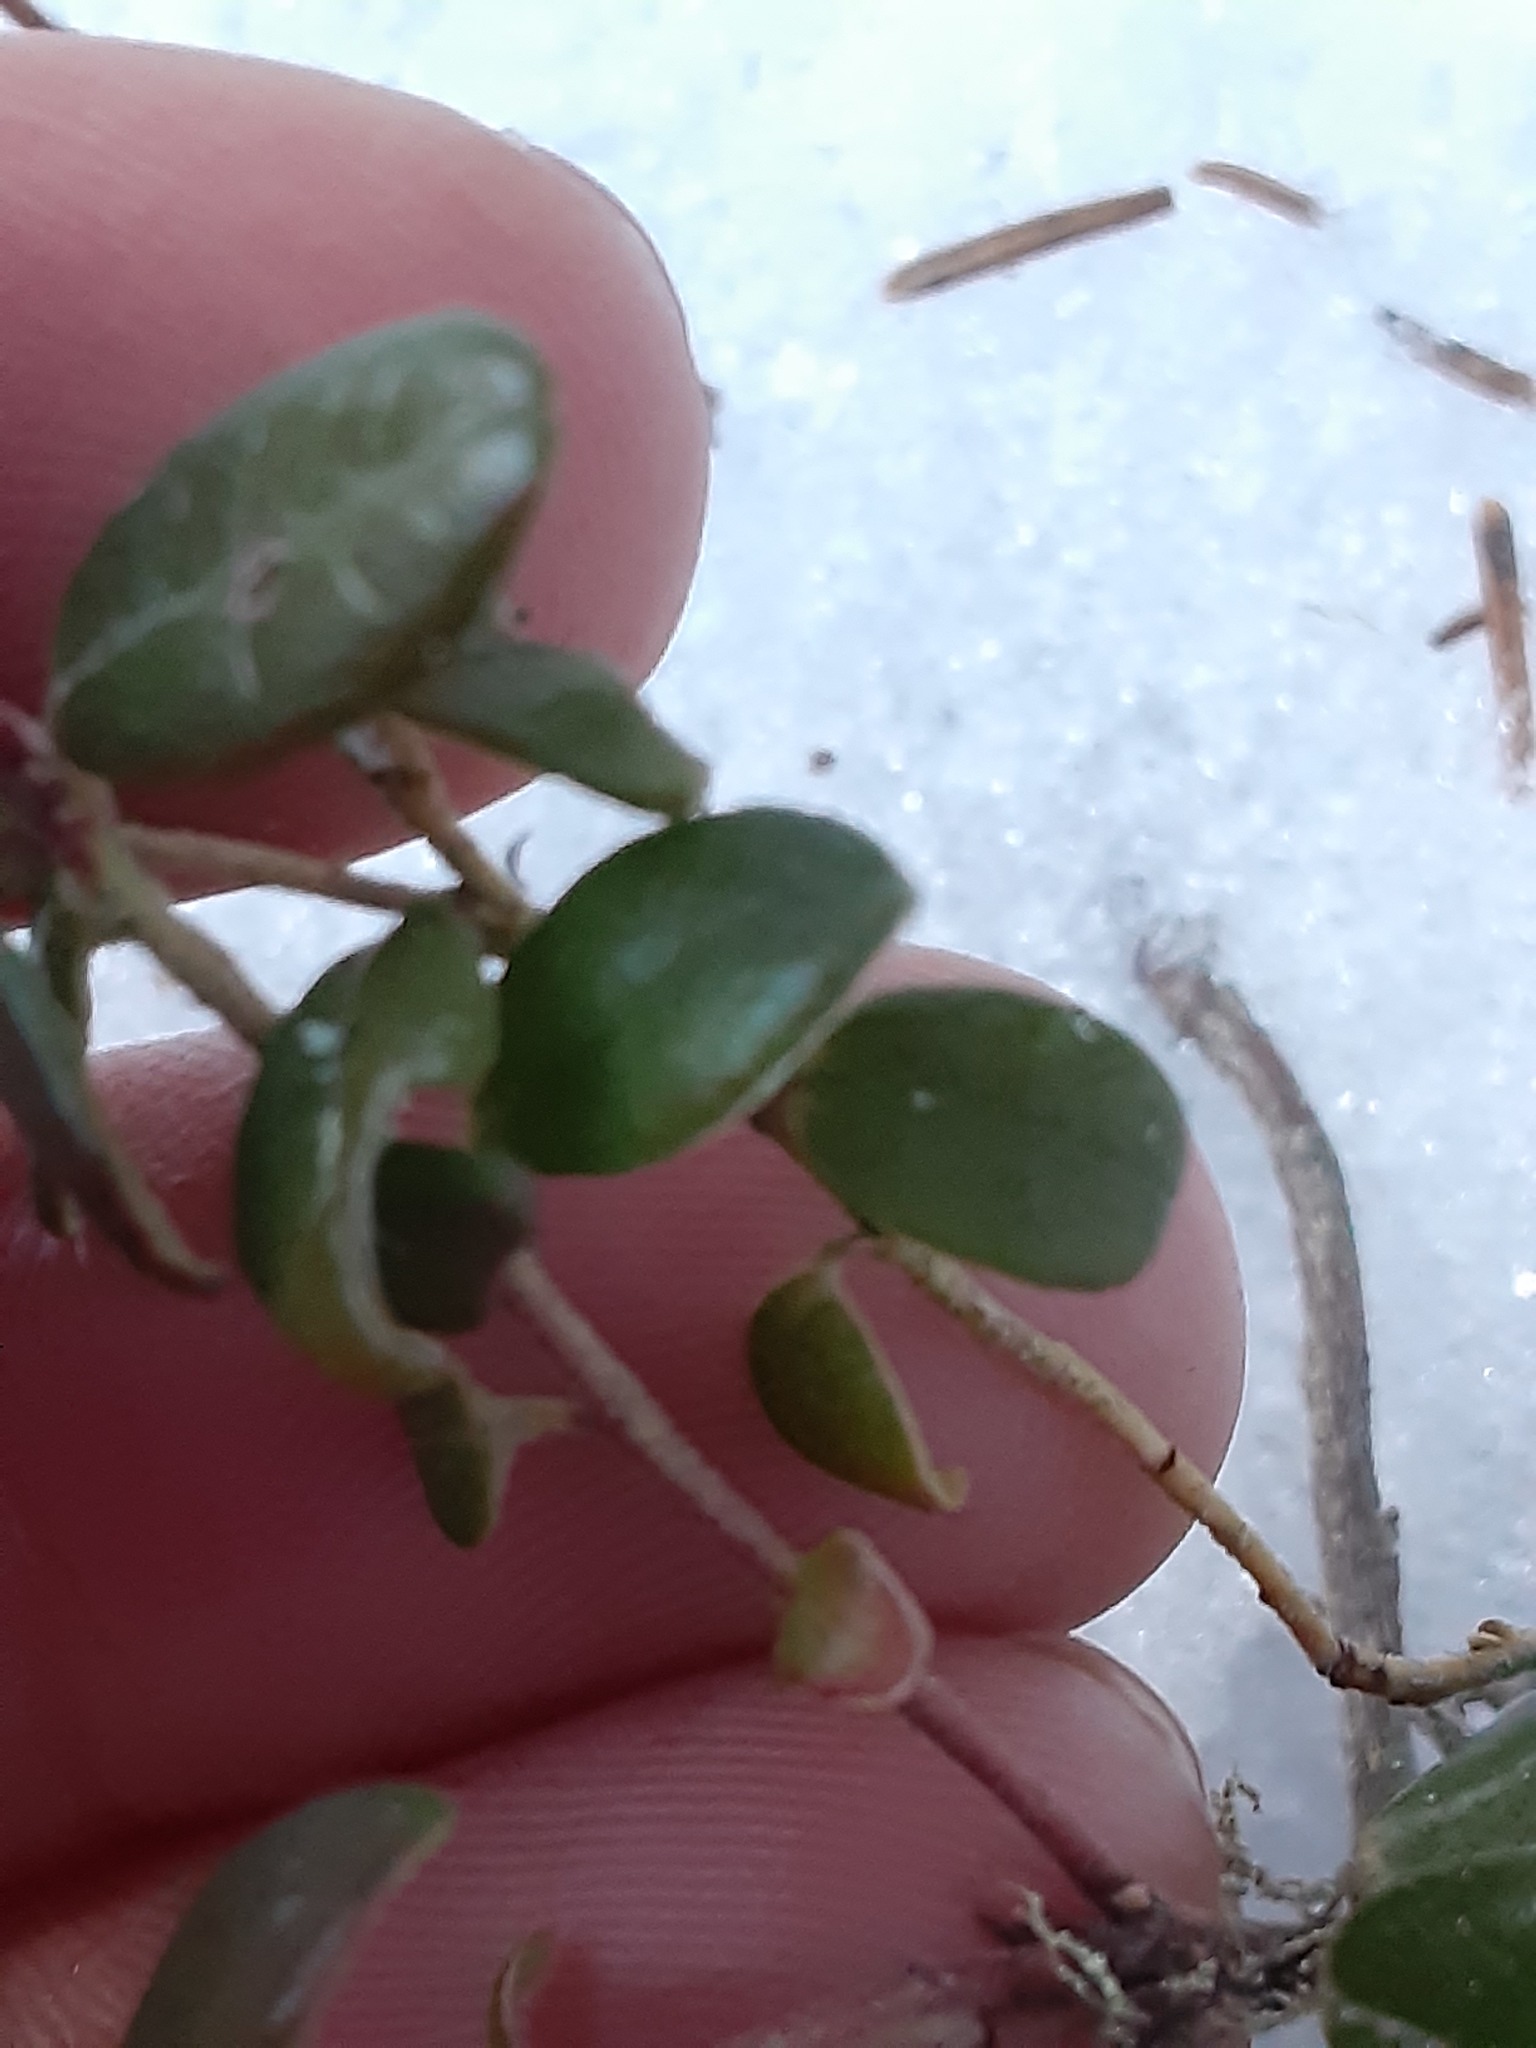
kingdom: Plantae
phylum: Tracheophyta
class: Magnoliopsida
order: Ericales
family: Ericaceae
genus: Vaccinium
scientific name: Vaccinium vitis-idaea
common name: Cowberry
